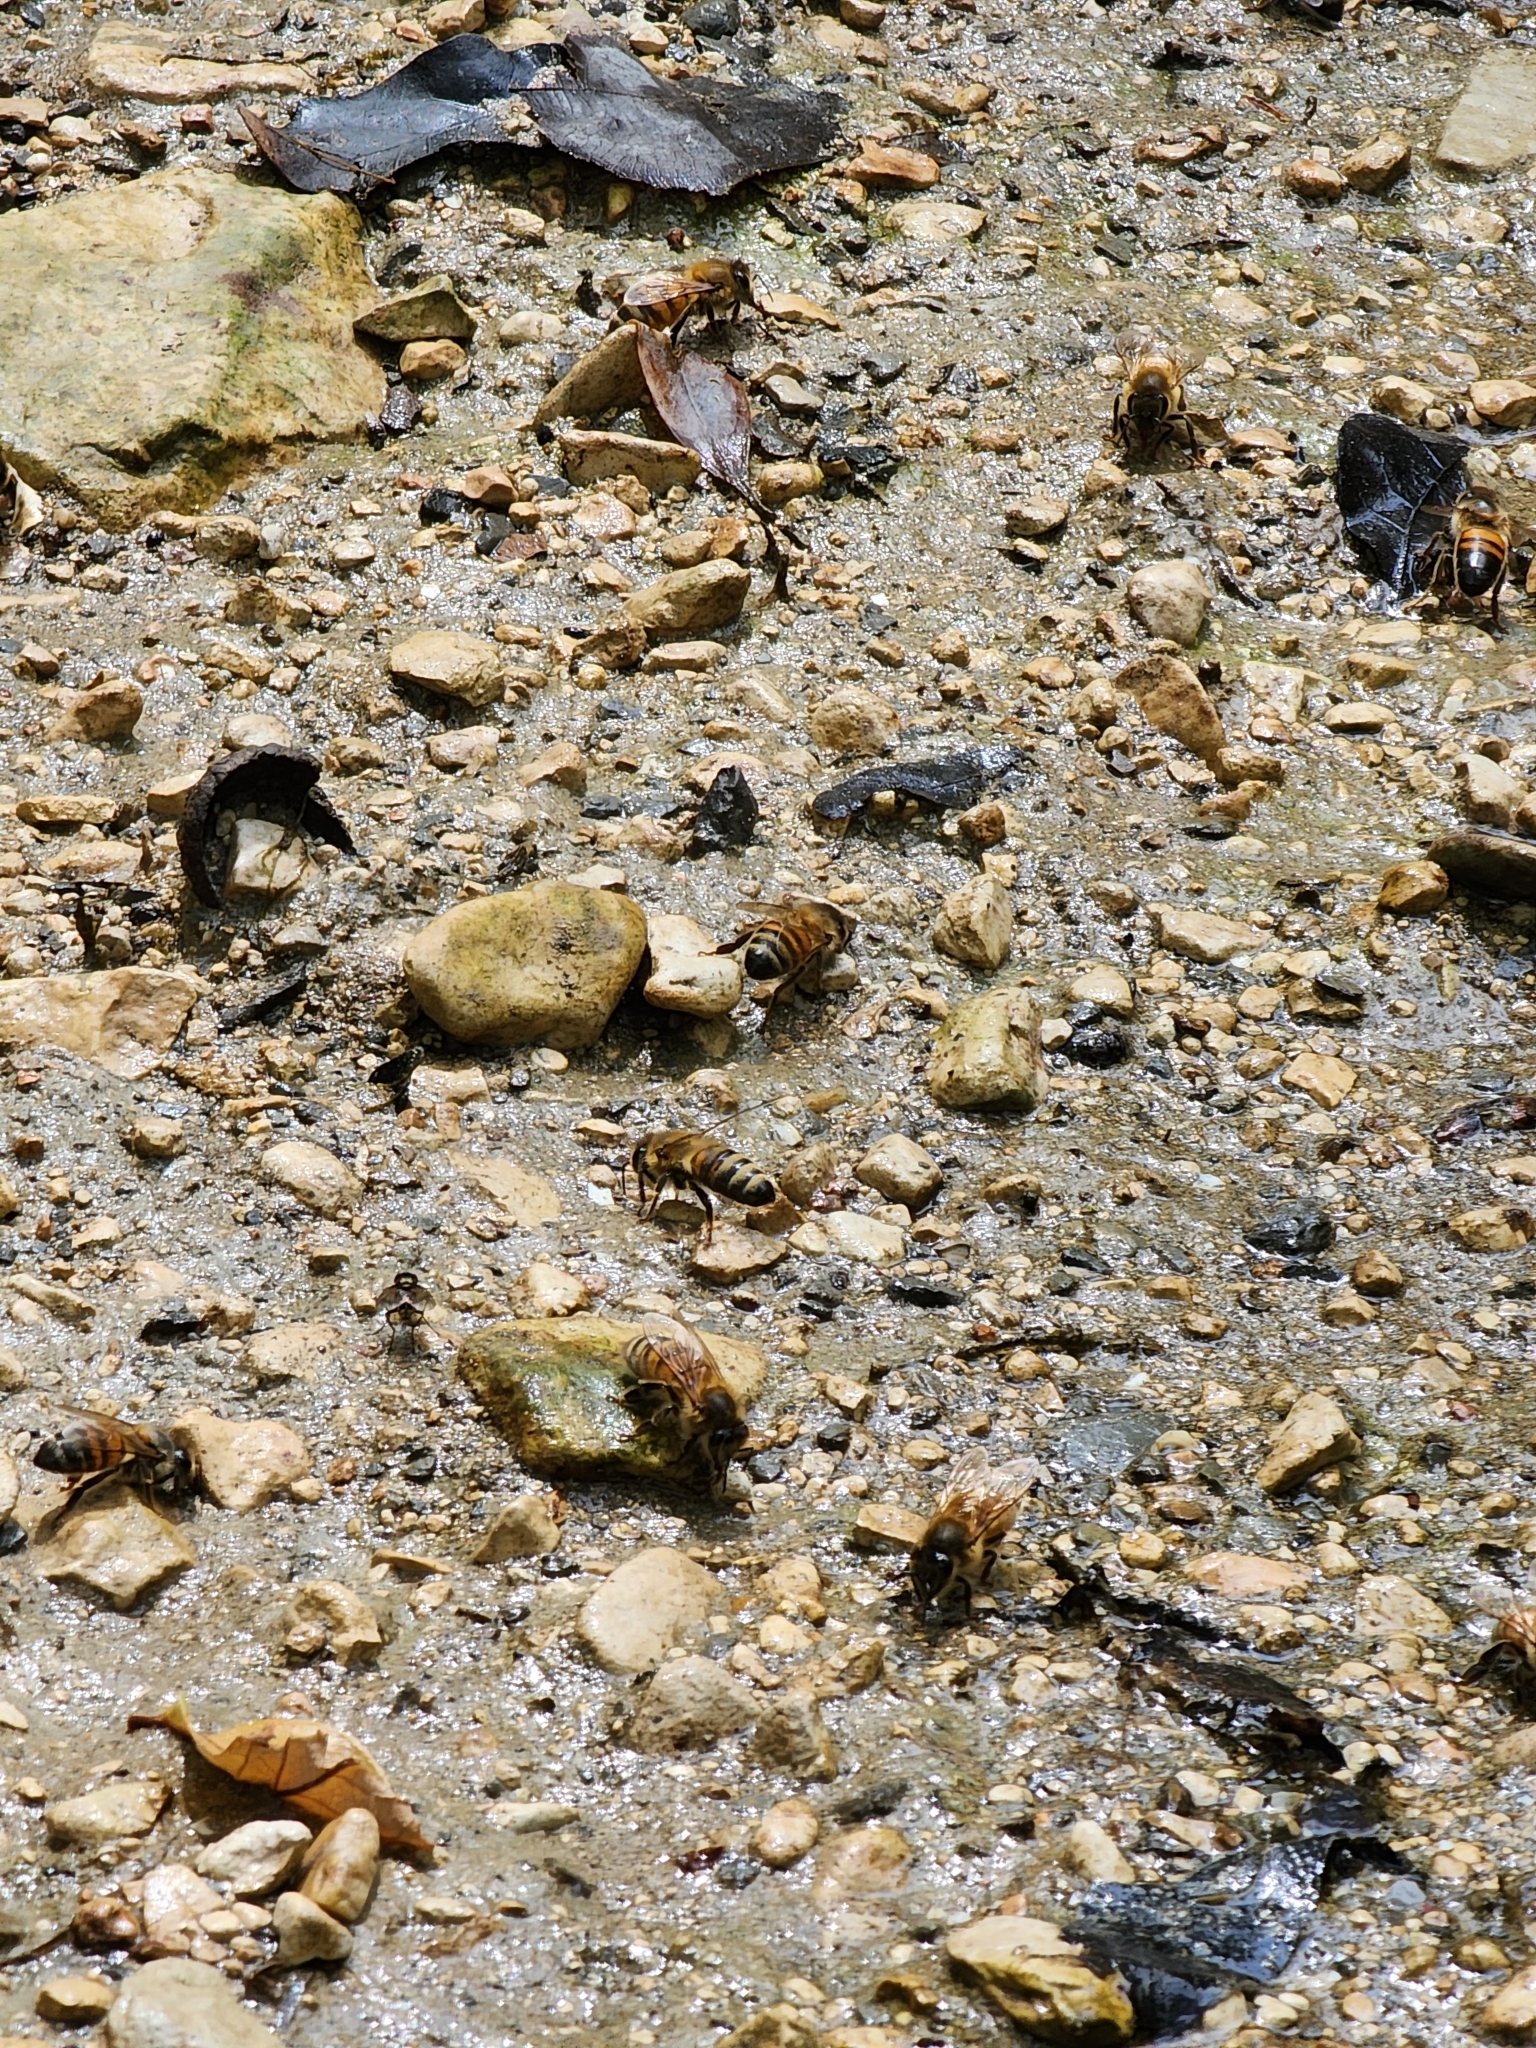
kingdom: Animalia
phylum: Arthropoda
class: Insecta
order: Hymenoptera
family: Apidae
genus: Apis
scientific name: Apis mellifera
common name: Honey bee
